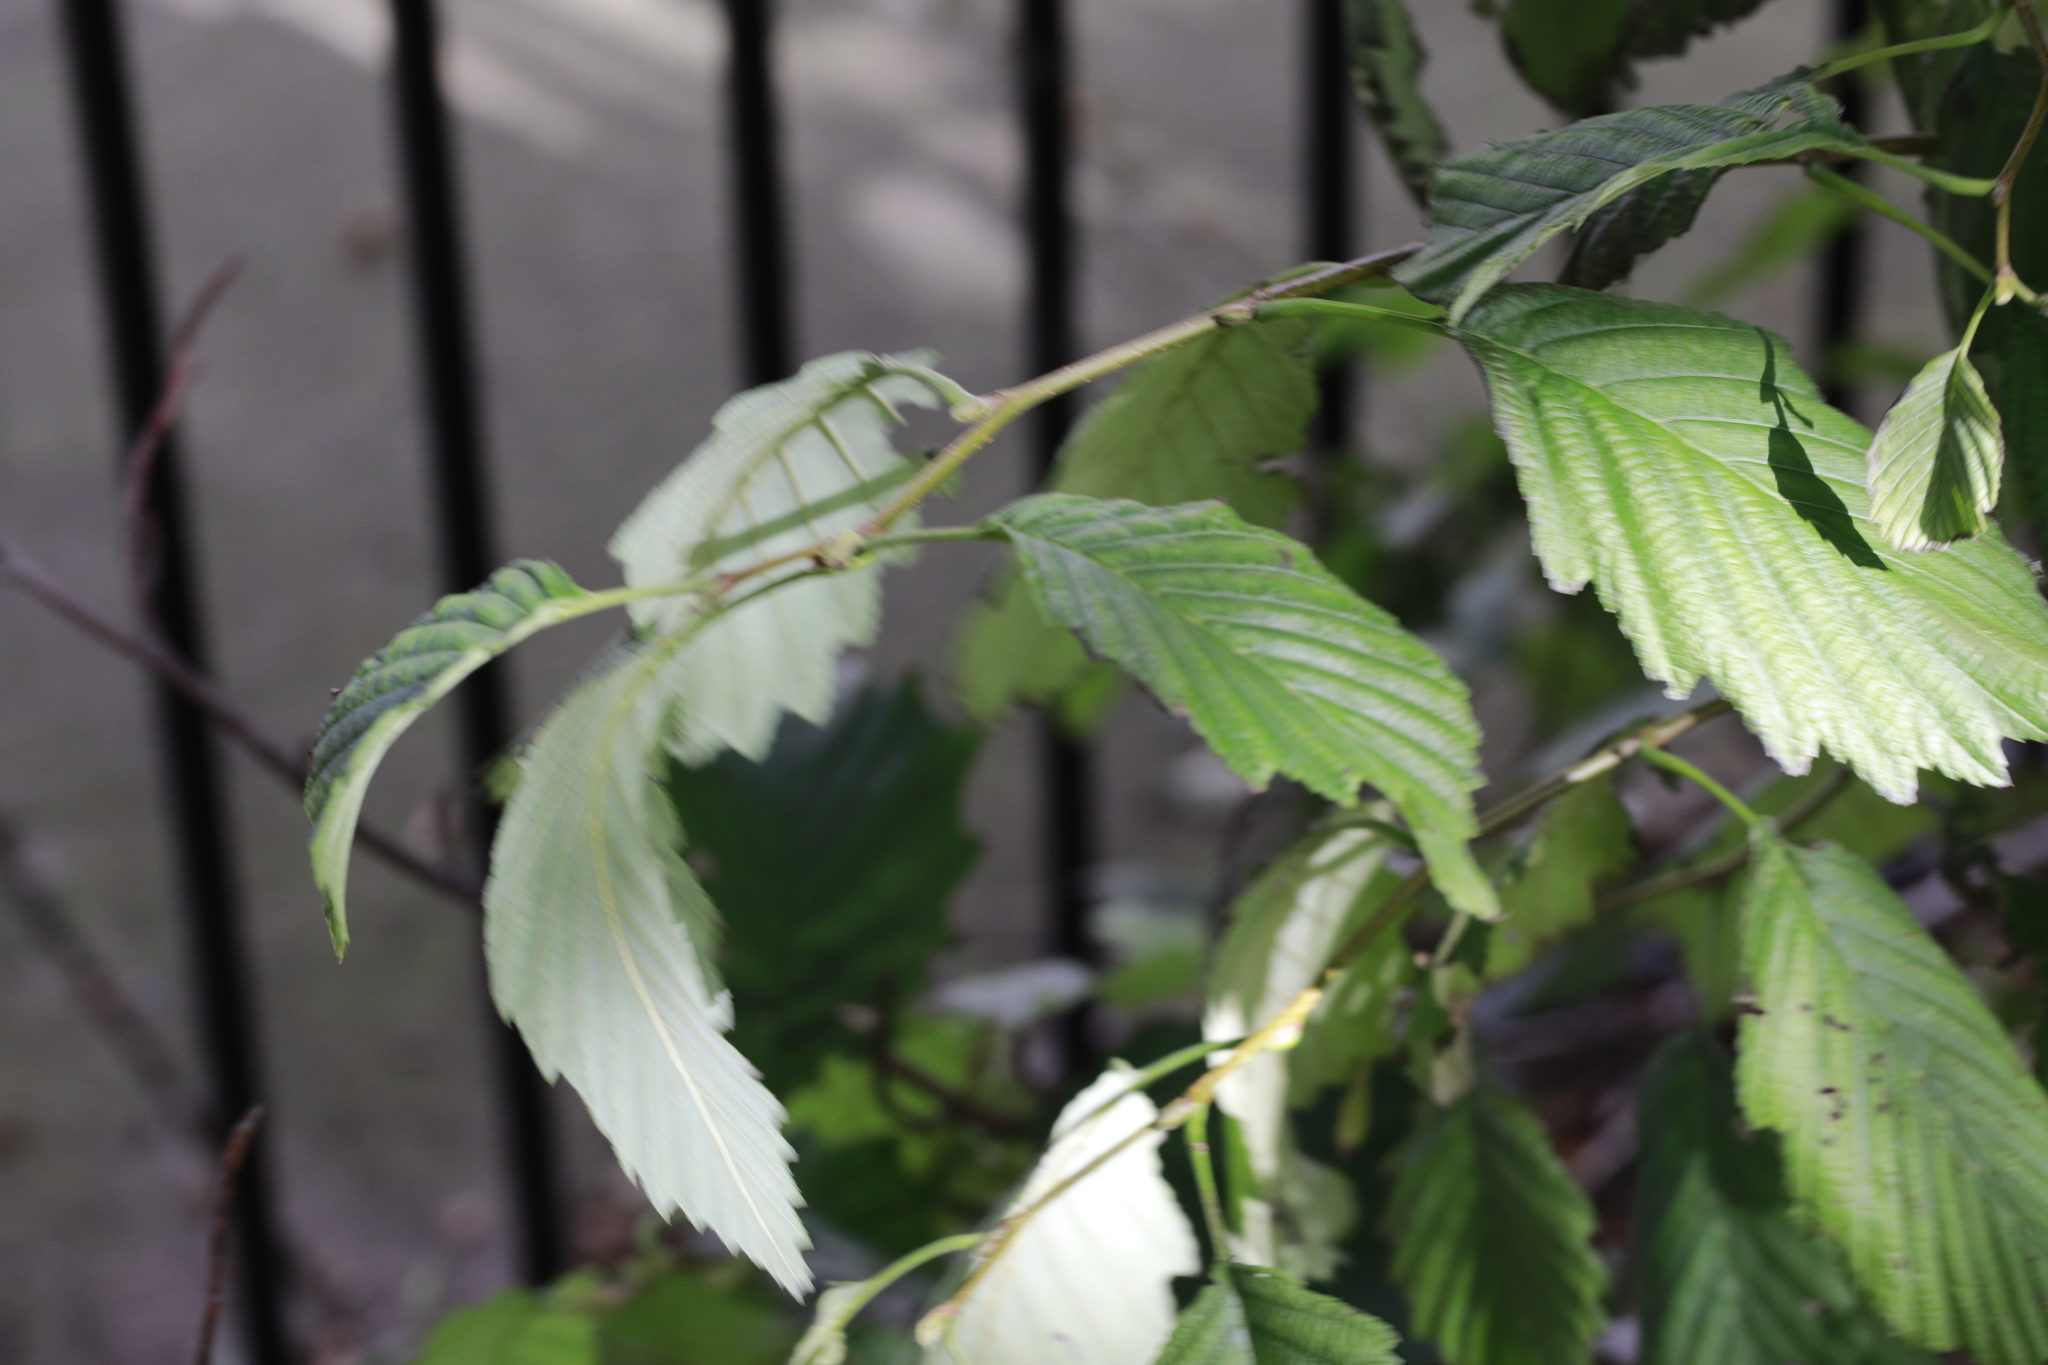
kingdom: Plantae
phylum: Tracheophyta
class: Magnoliopsida
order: Fagales
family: Betulaceae
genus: Alnus
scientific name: Alnus incana
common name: Grey alder
